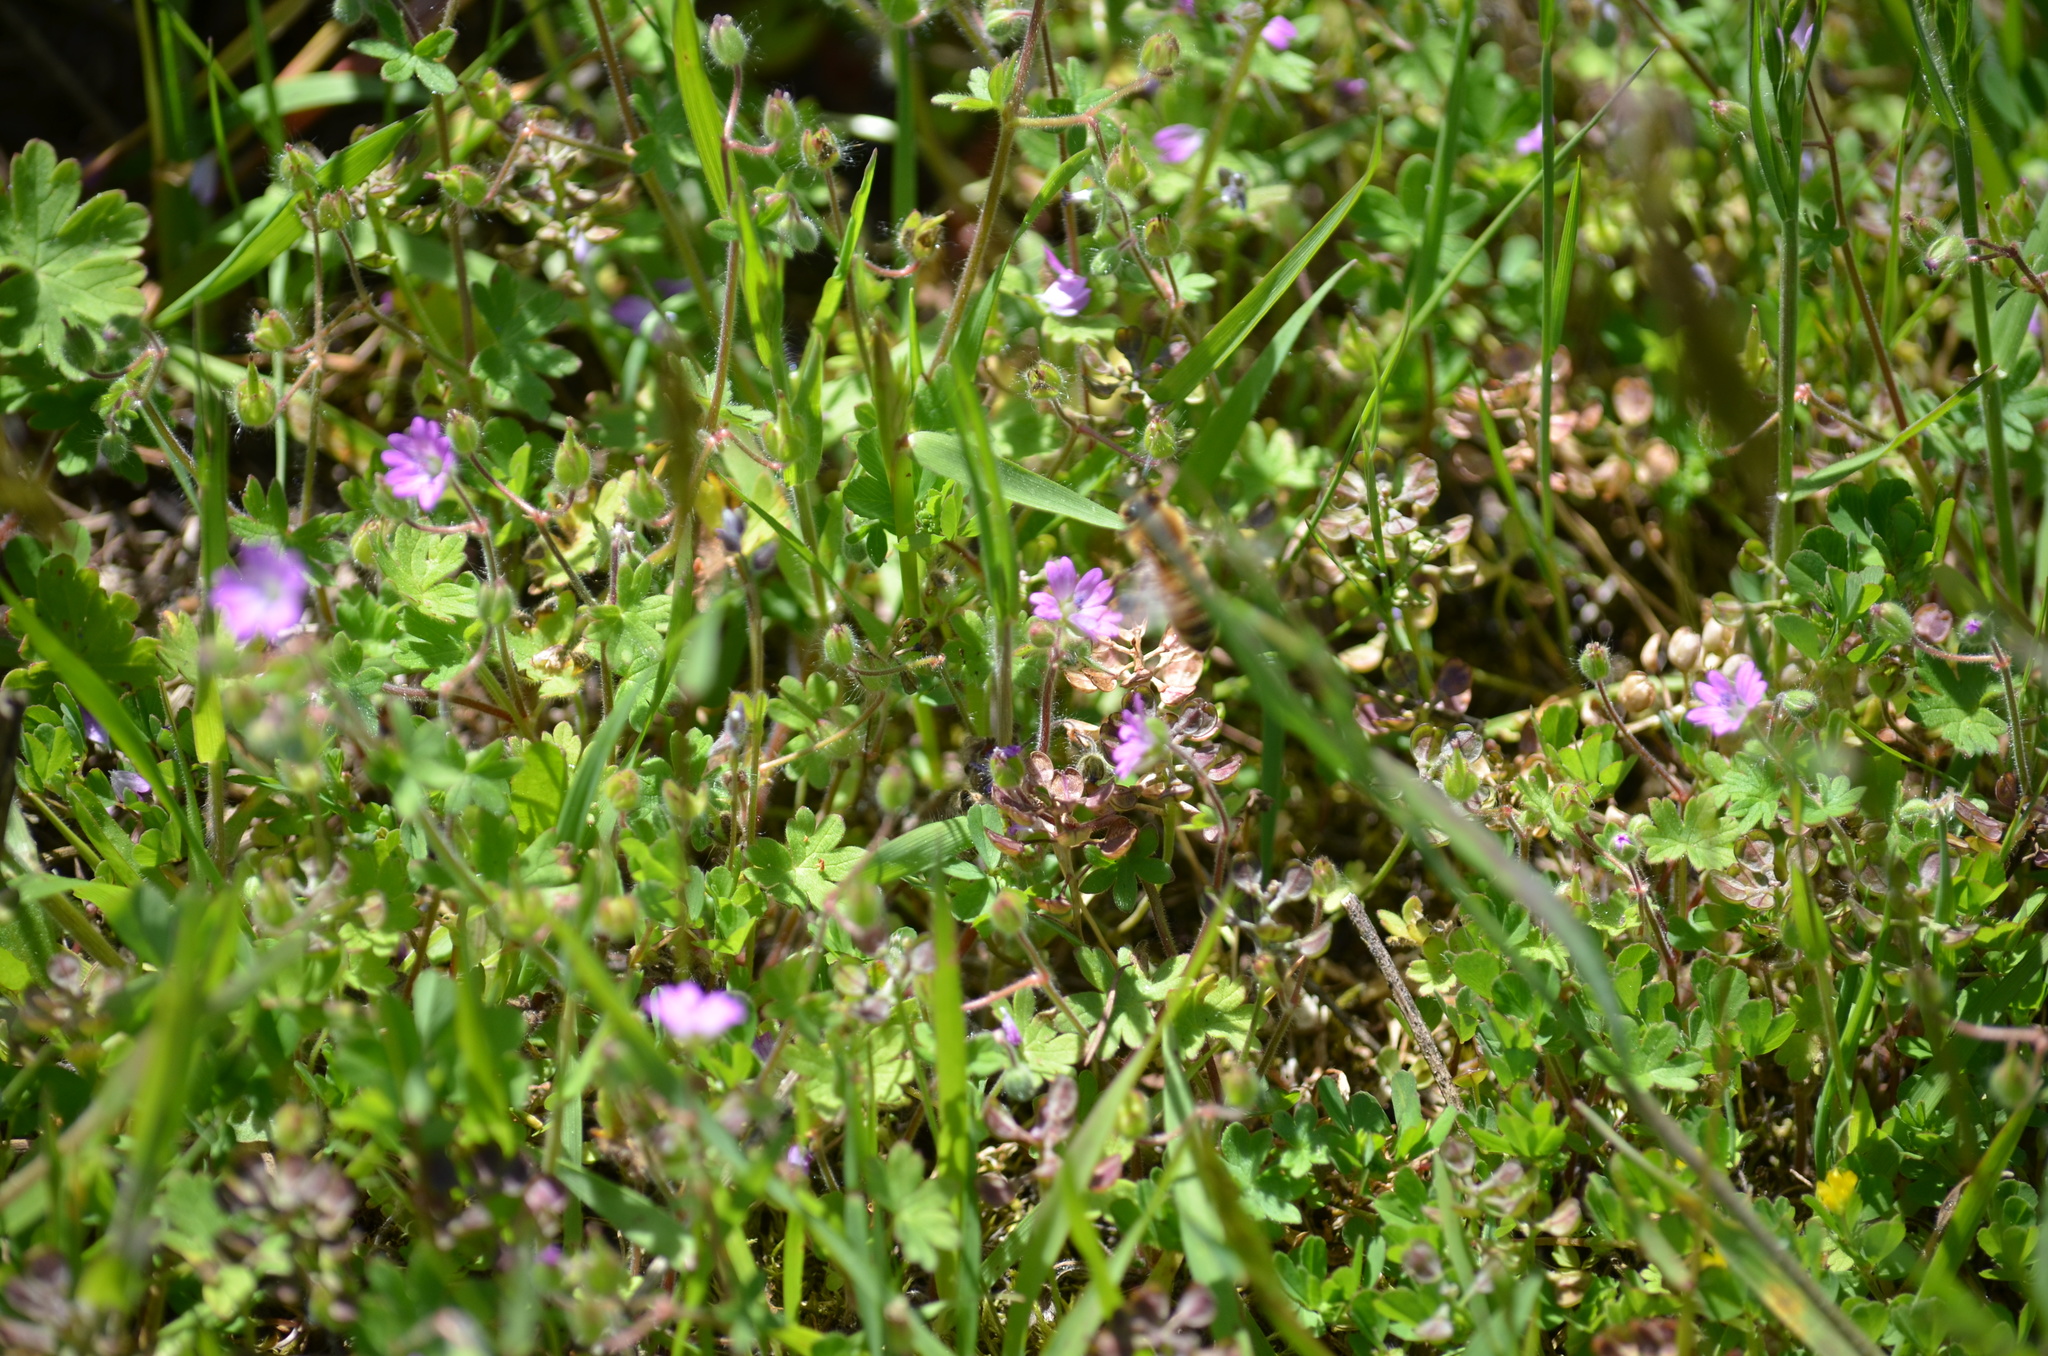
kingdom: Animalia
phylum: Arthropoda
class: Insecta
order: Hymenoptera
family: Apidae
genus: Apis
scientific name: Apis mellifera
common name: Honey bee
